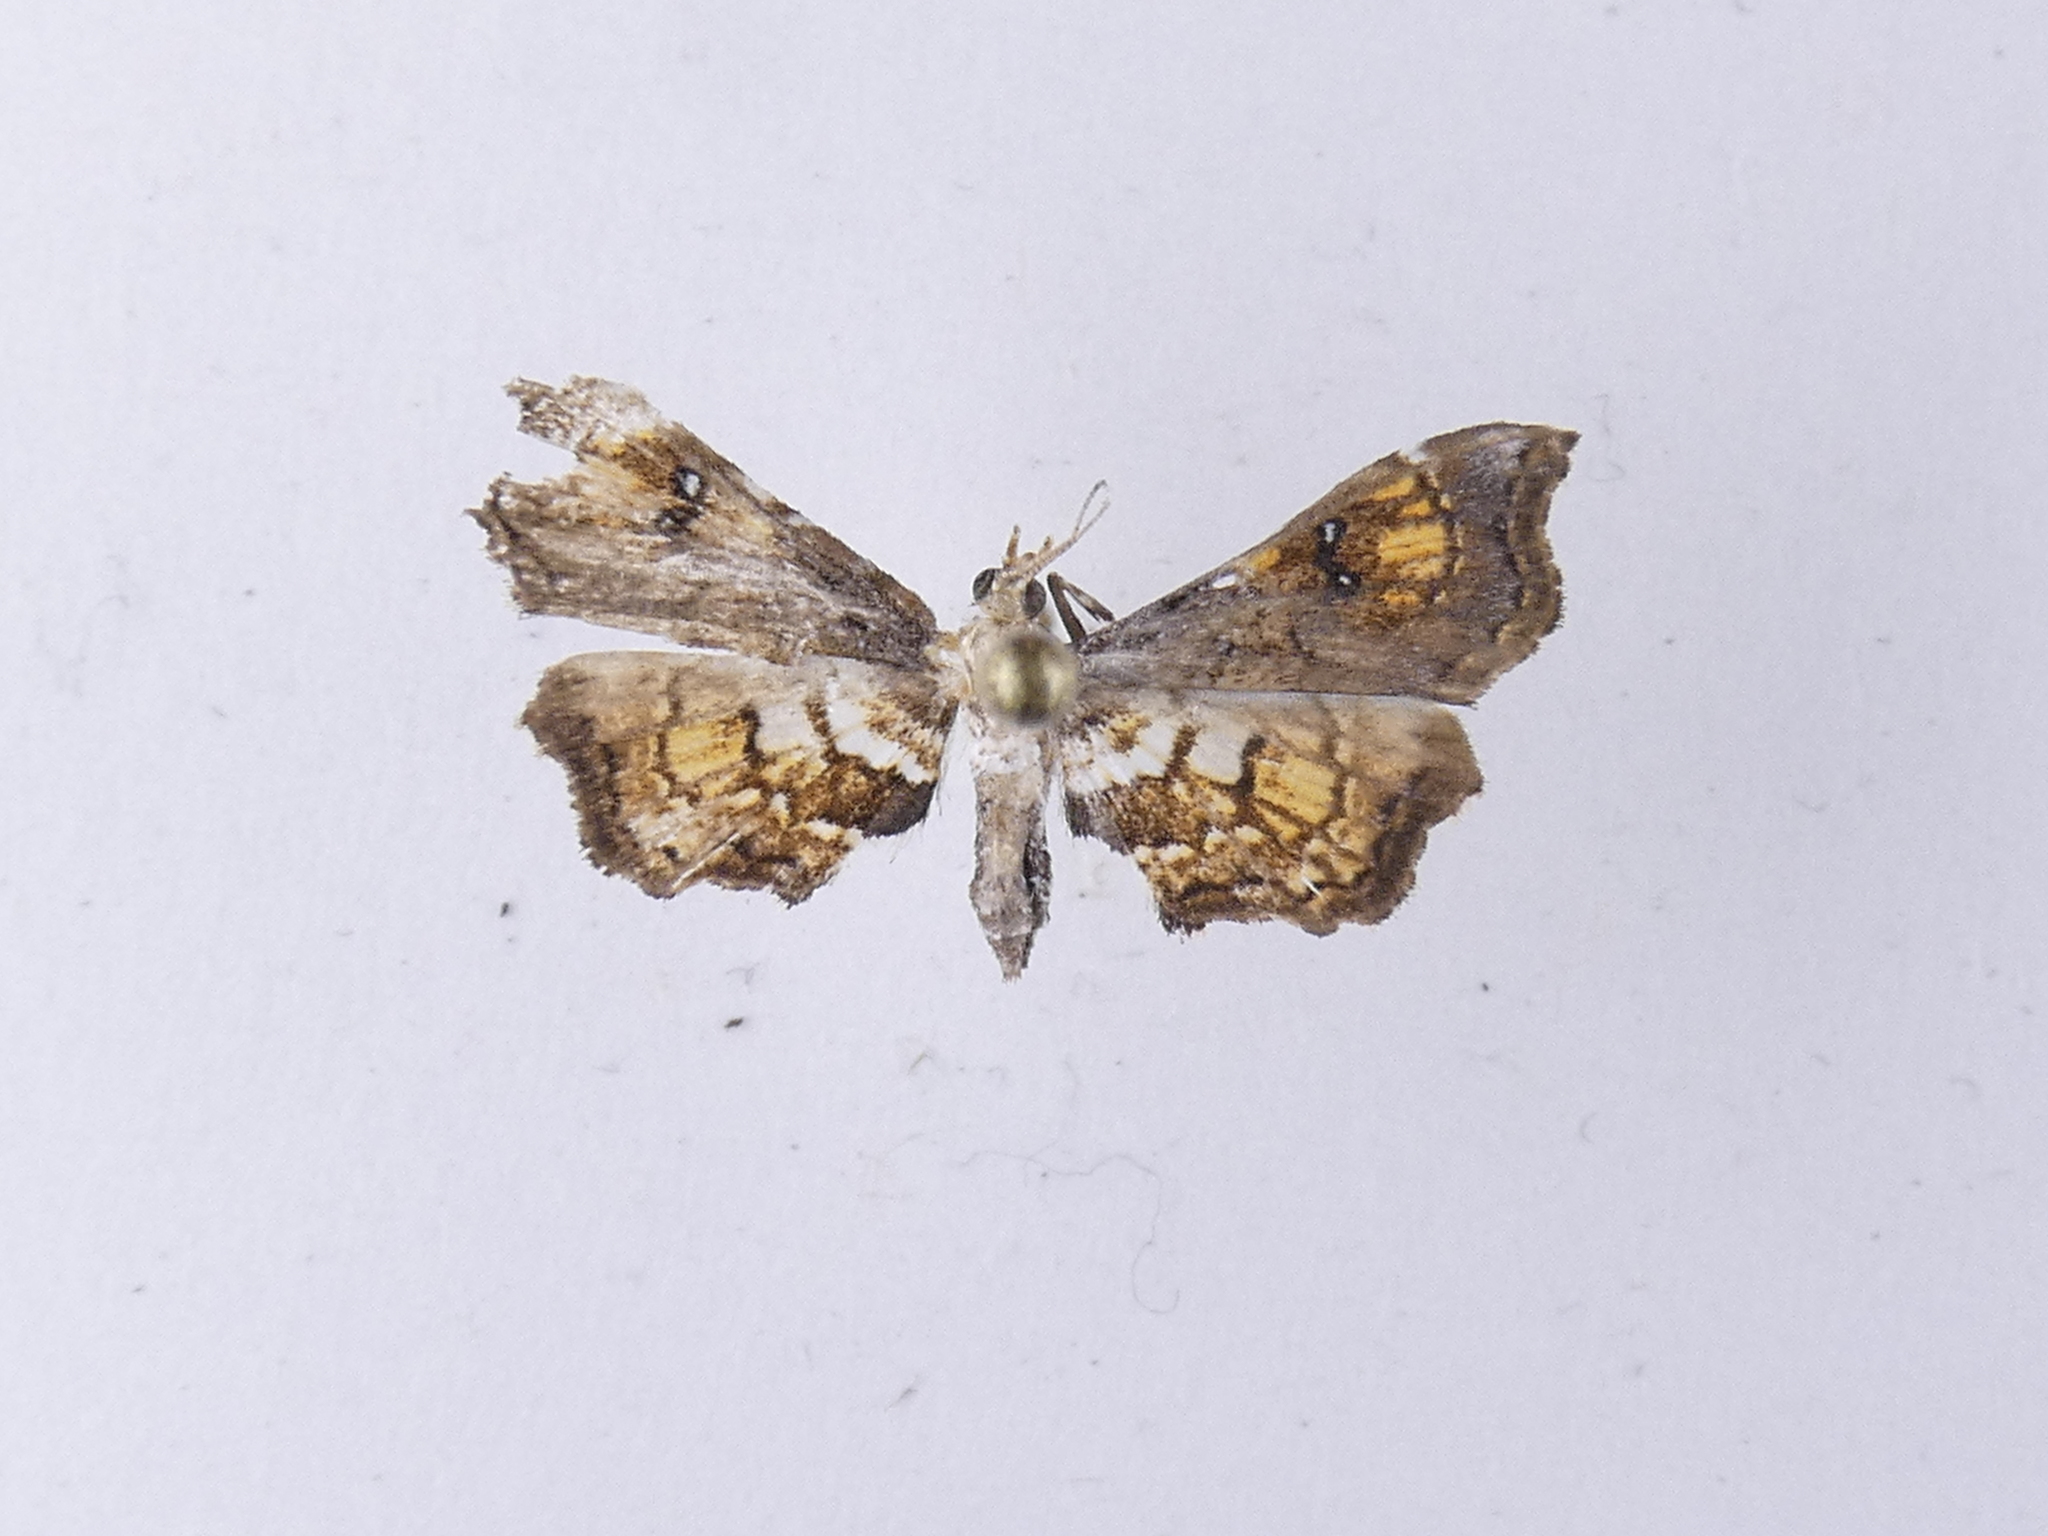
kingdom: Animalia
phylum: Arthropoda
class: Insecta
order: Lepidoptera
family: Pyralidae
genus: Musotima
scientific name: Musotima aduncalis
